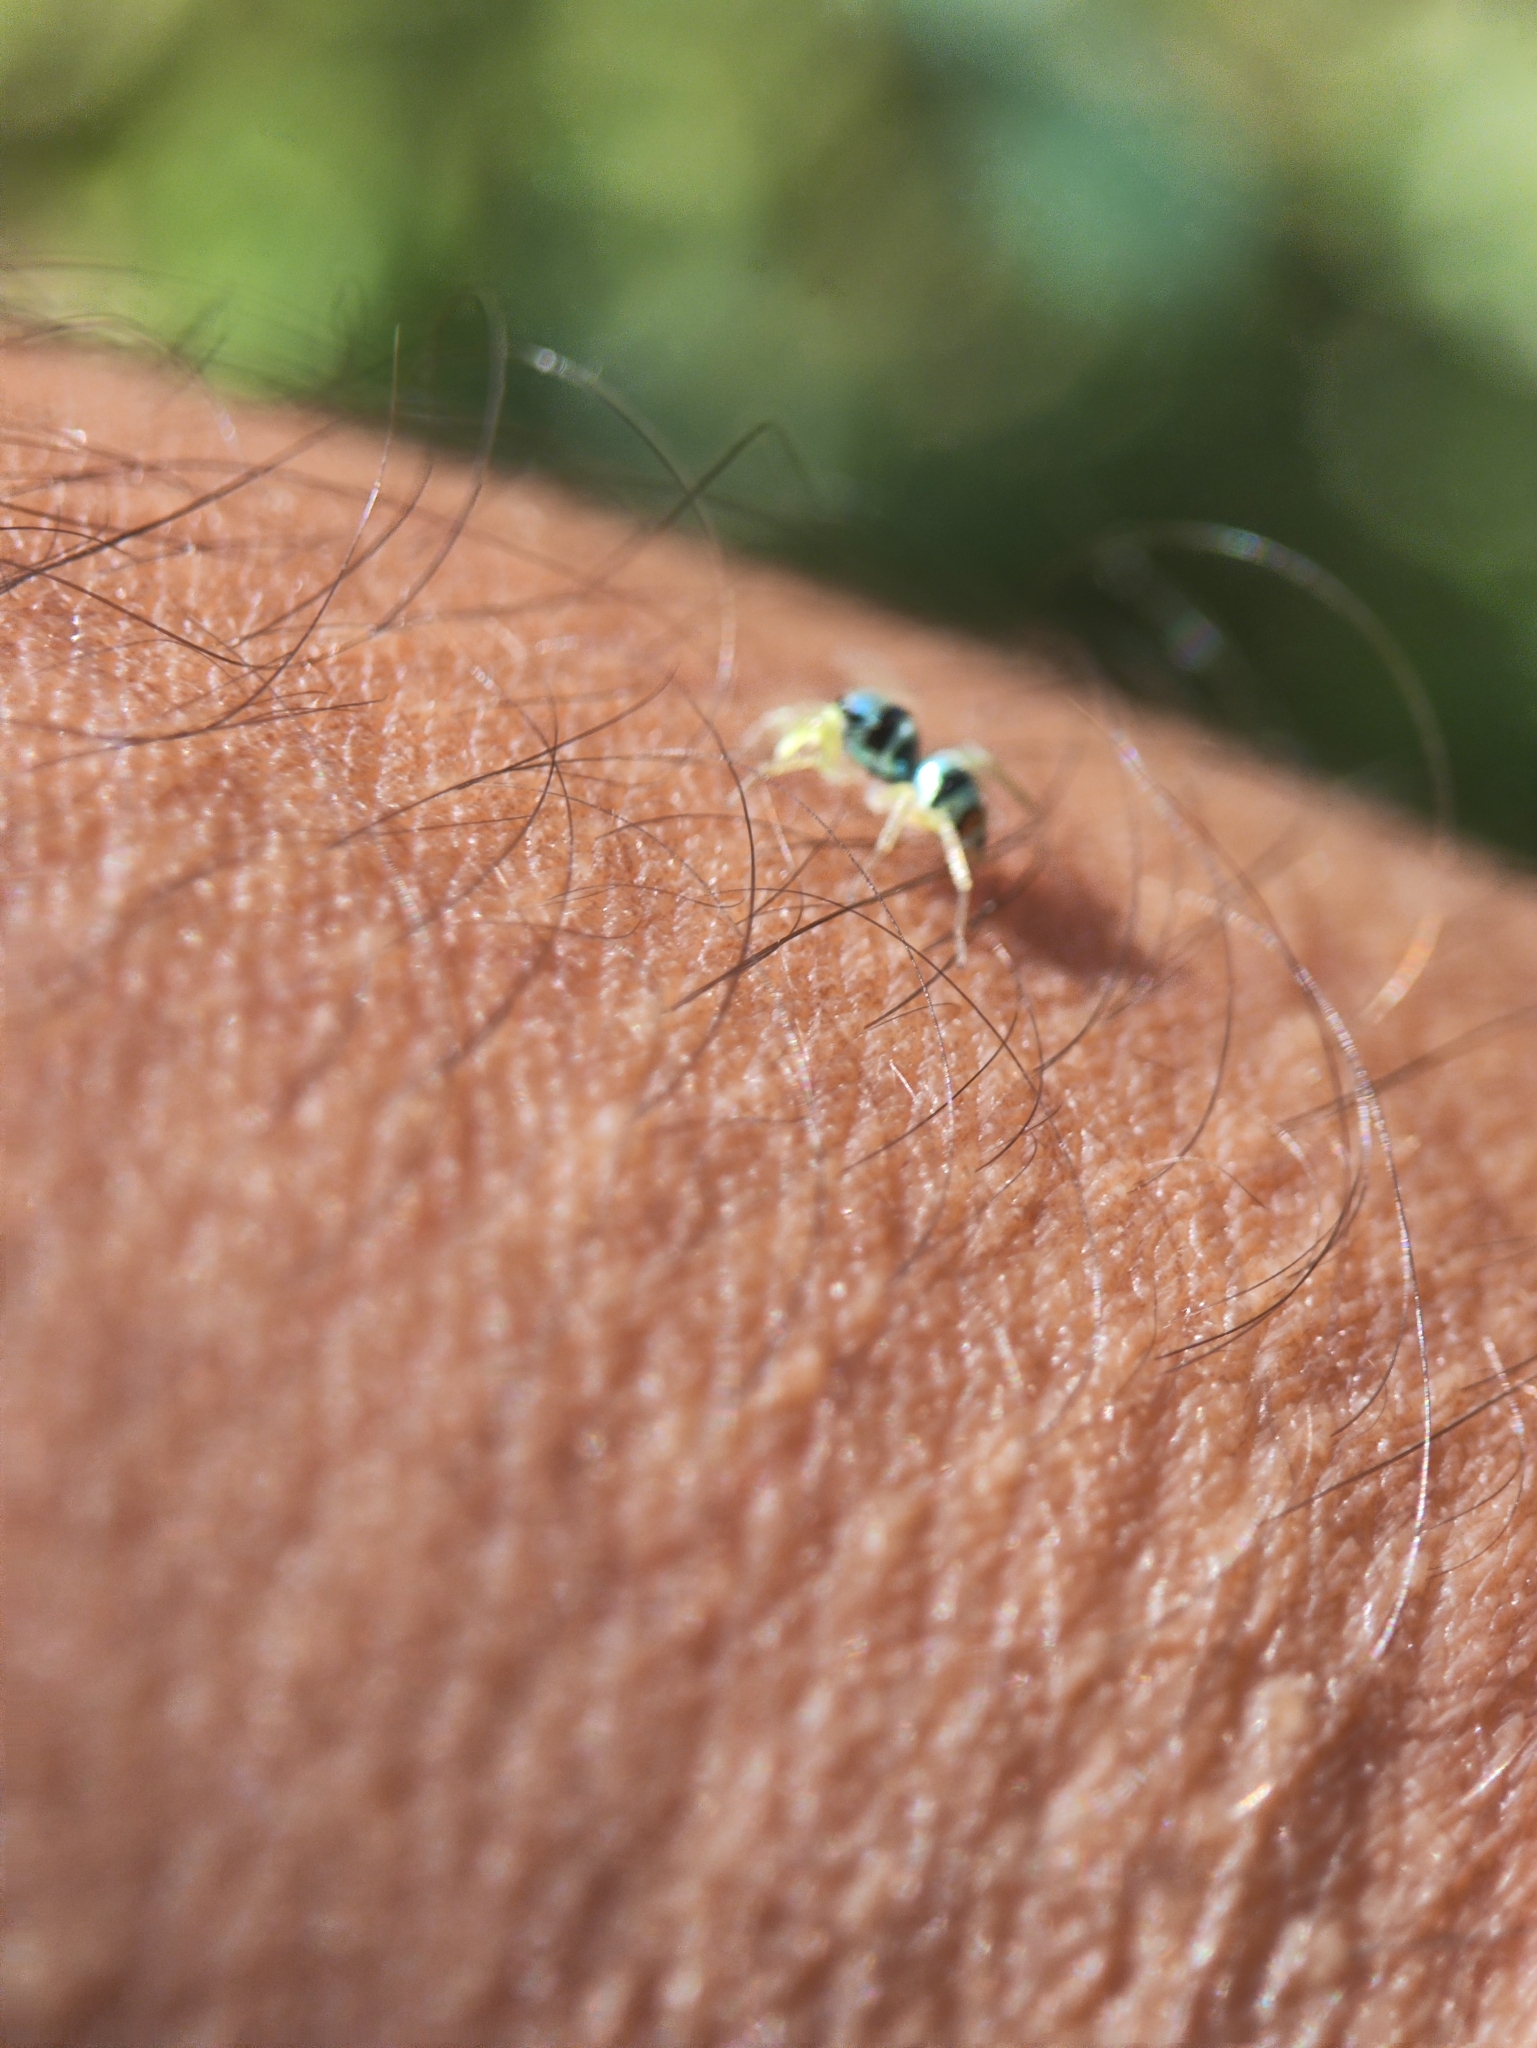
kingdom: Animalia
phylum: Arthropoda
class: Arachnida
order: Araneae
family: Salticidae
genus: Phintella
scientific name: Phintella vittata
